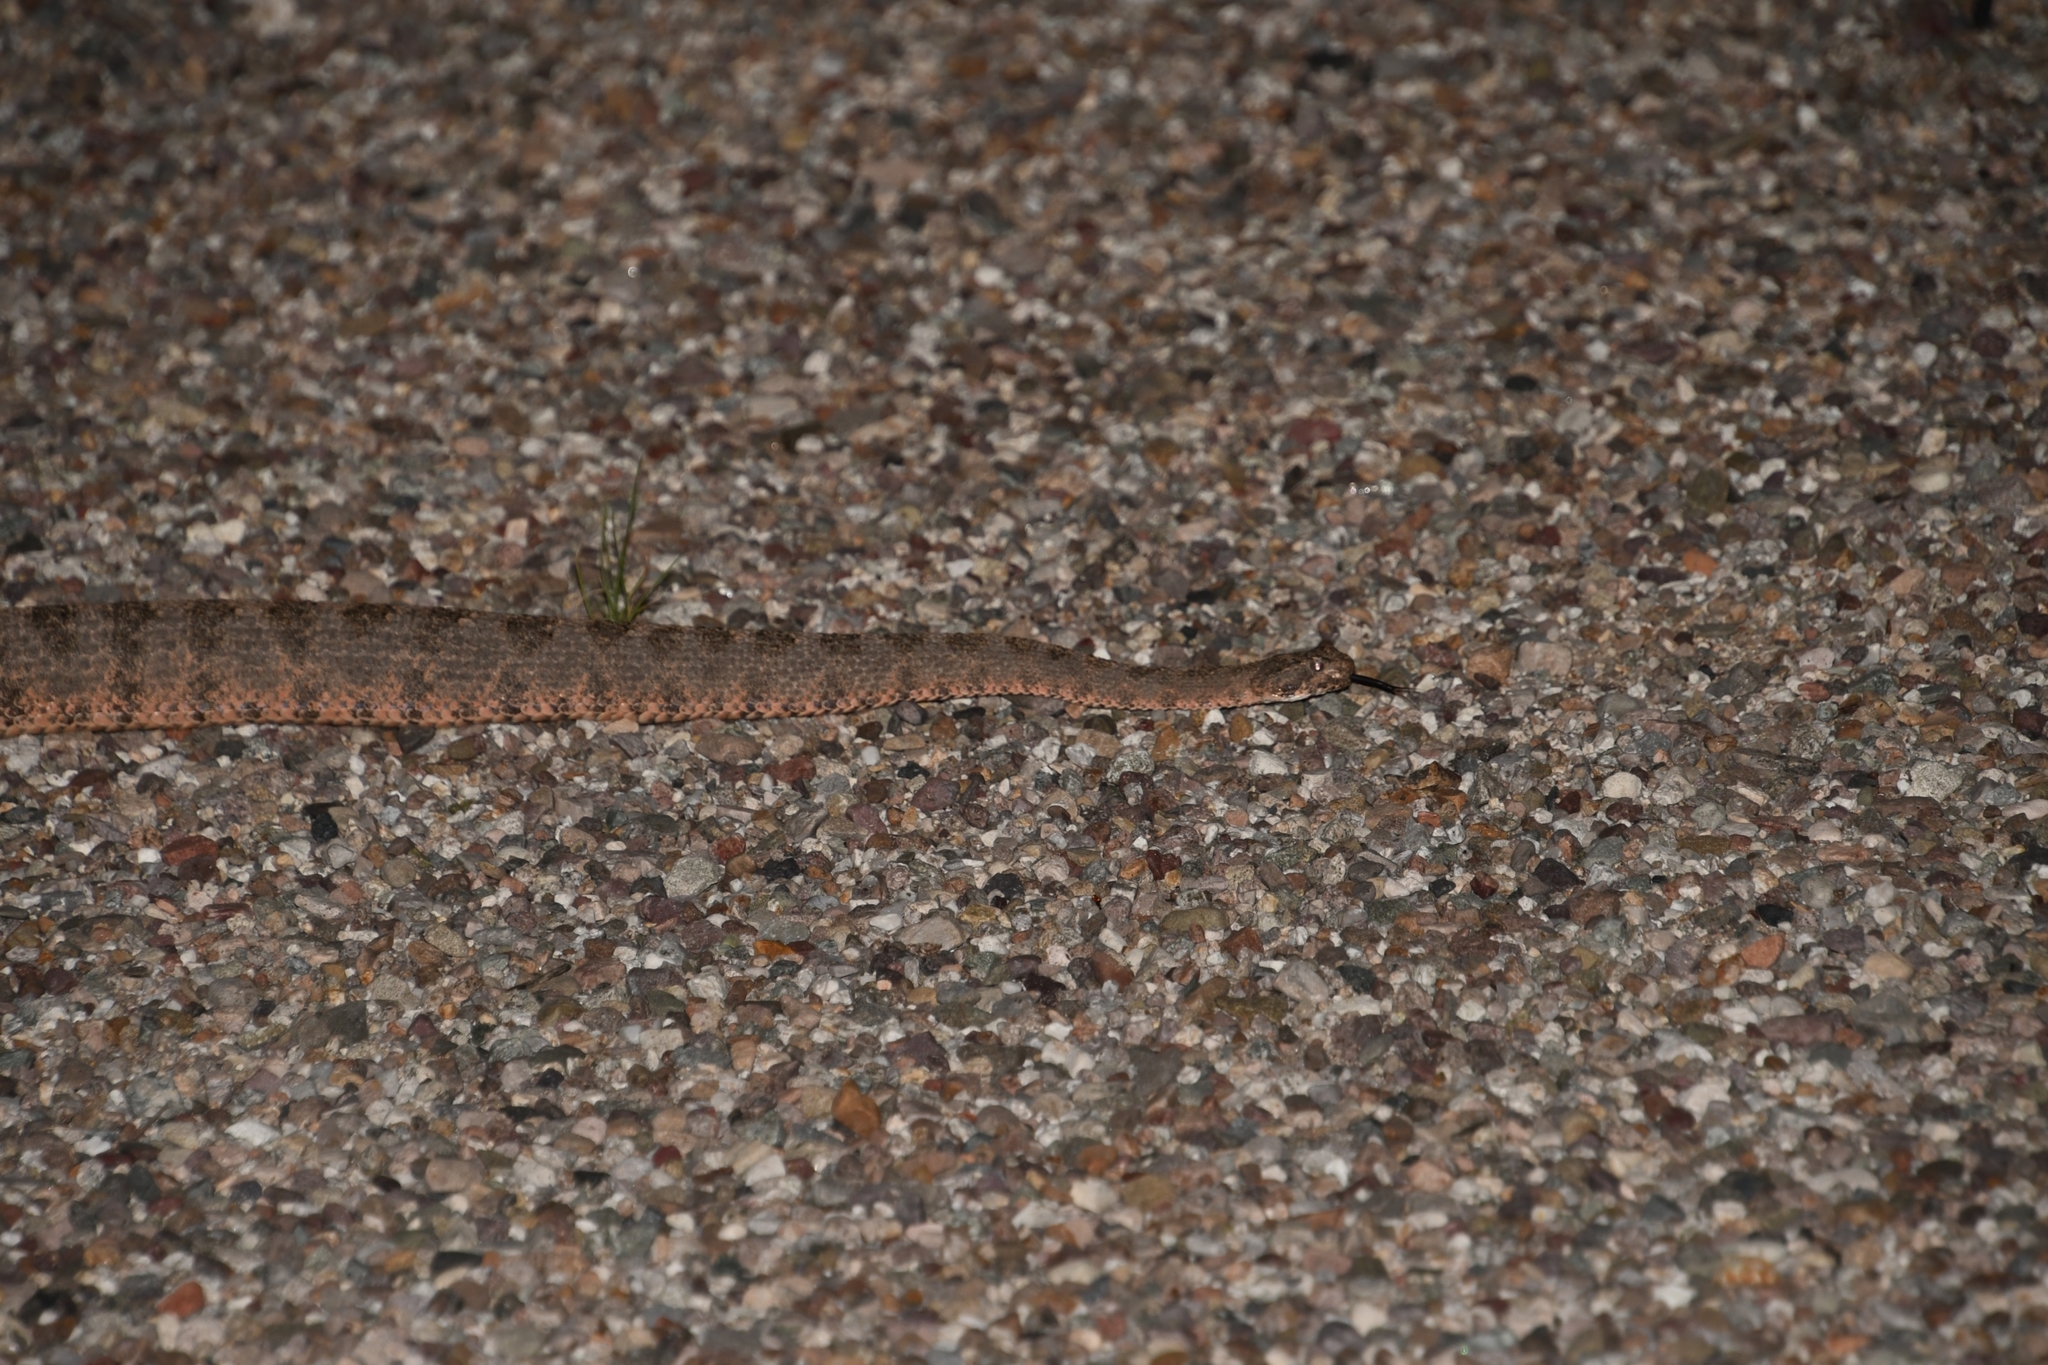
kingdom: Animalia
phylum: Chordata
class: Squamata
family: Viperidae
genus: Crotalus
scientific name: Crotalus tigris
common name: Tiger rattlesnake
